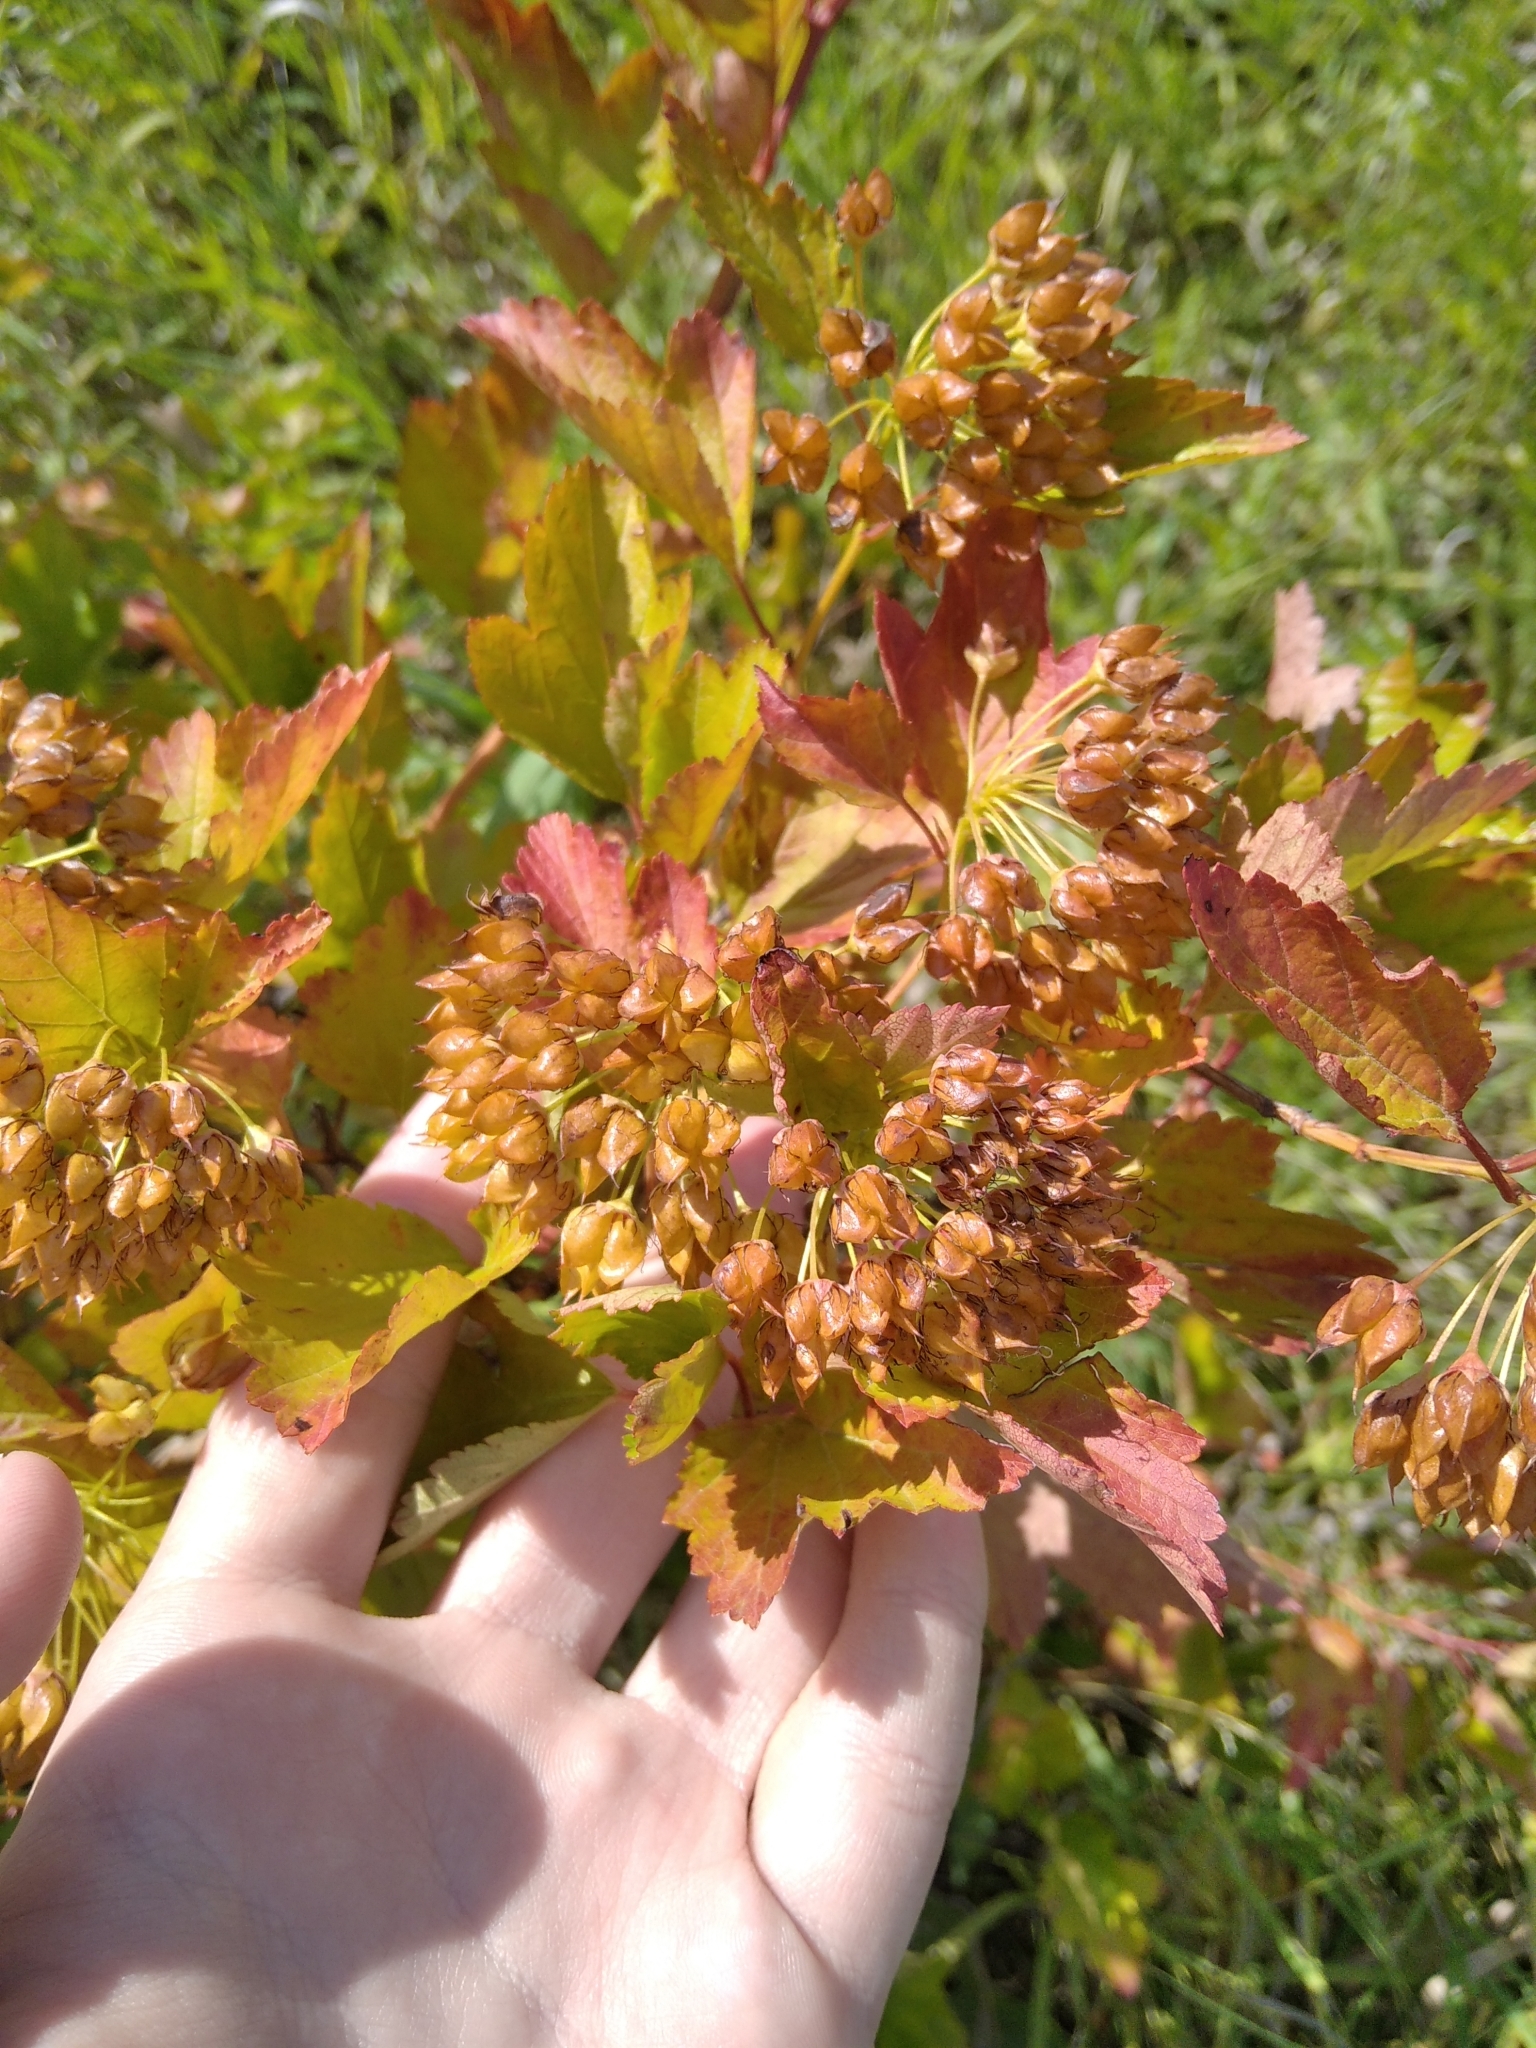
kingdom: Plantae
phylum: Tracheophyta
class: Magnoliopsida
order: Rosales
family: Rosaceae
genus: Physocarpus
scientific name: Physocarpus opulifolius
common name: Ninebark
